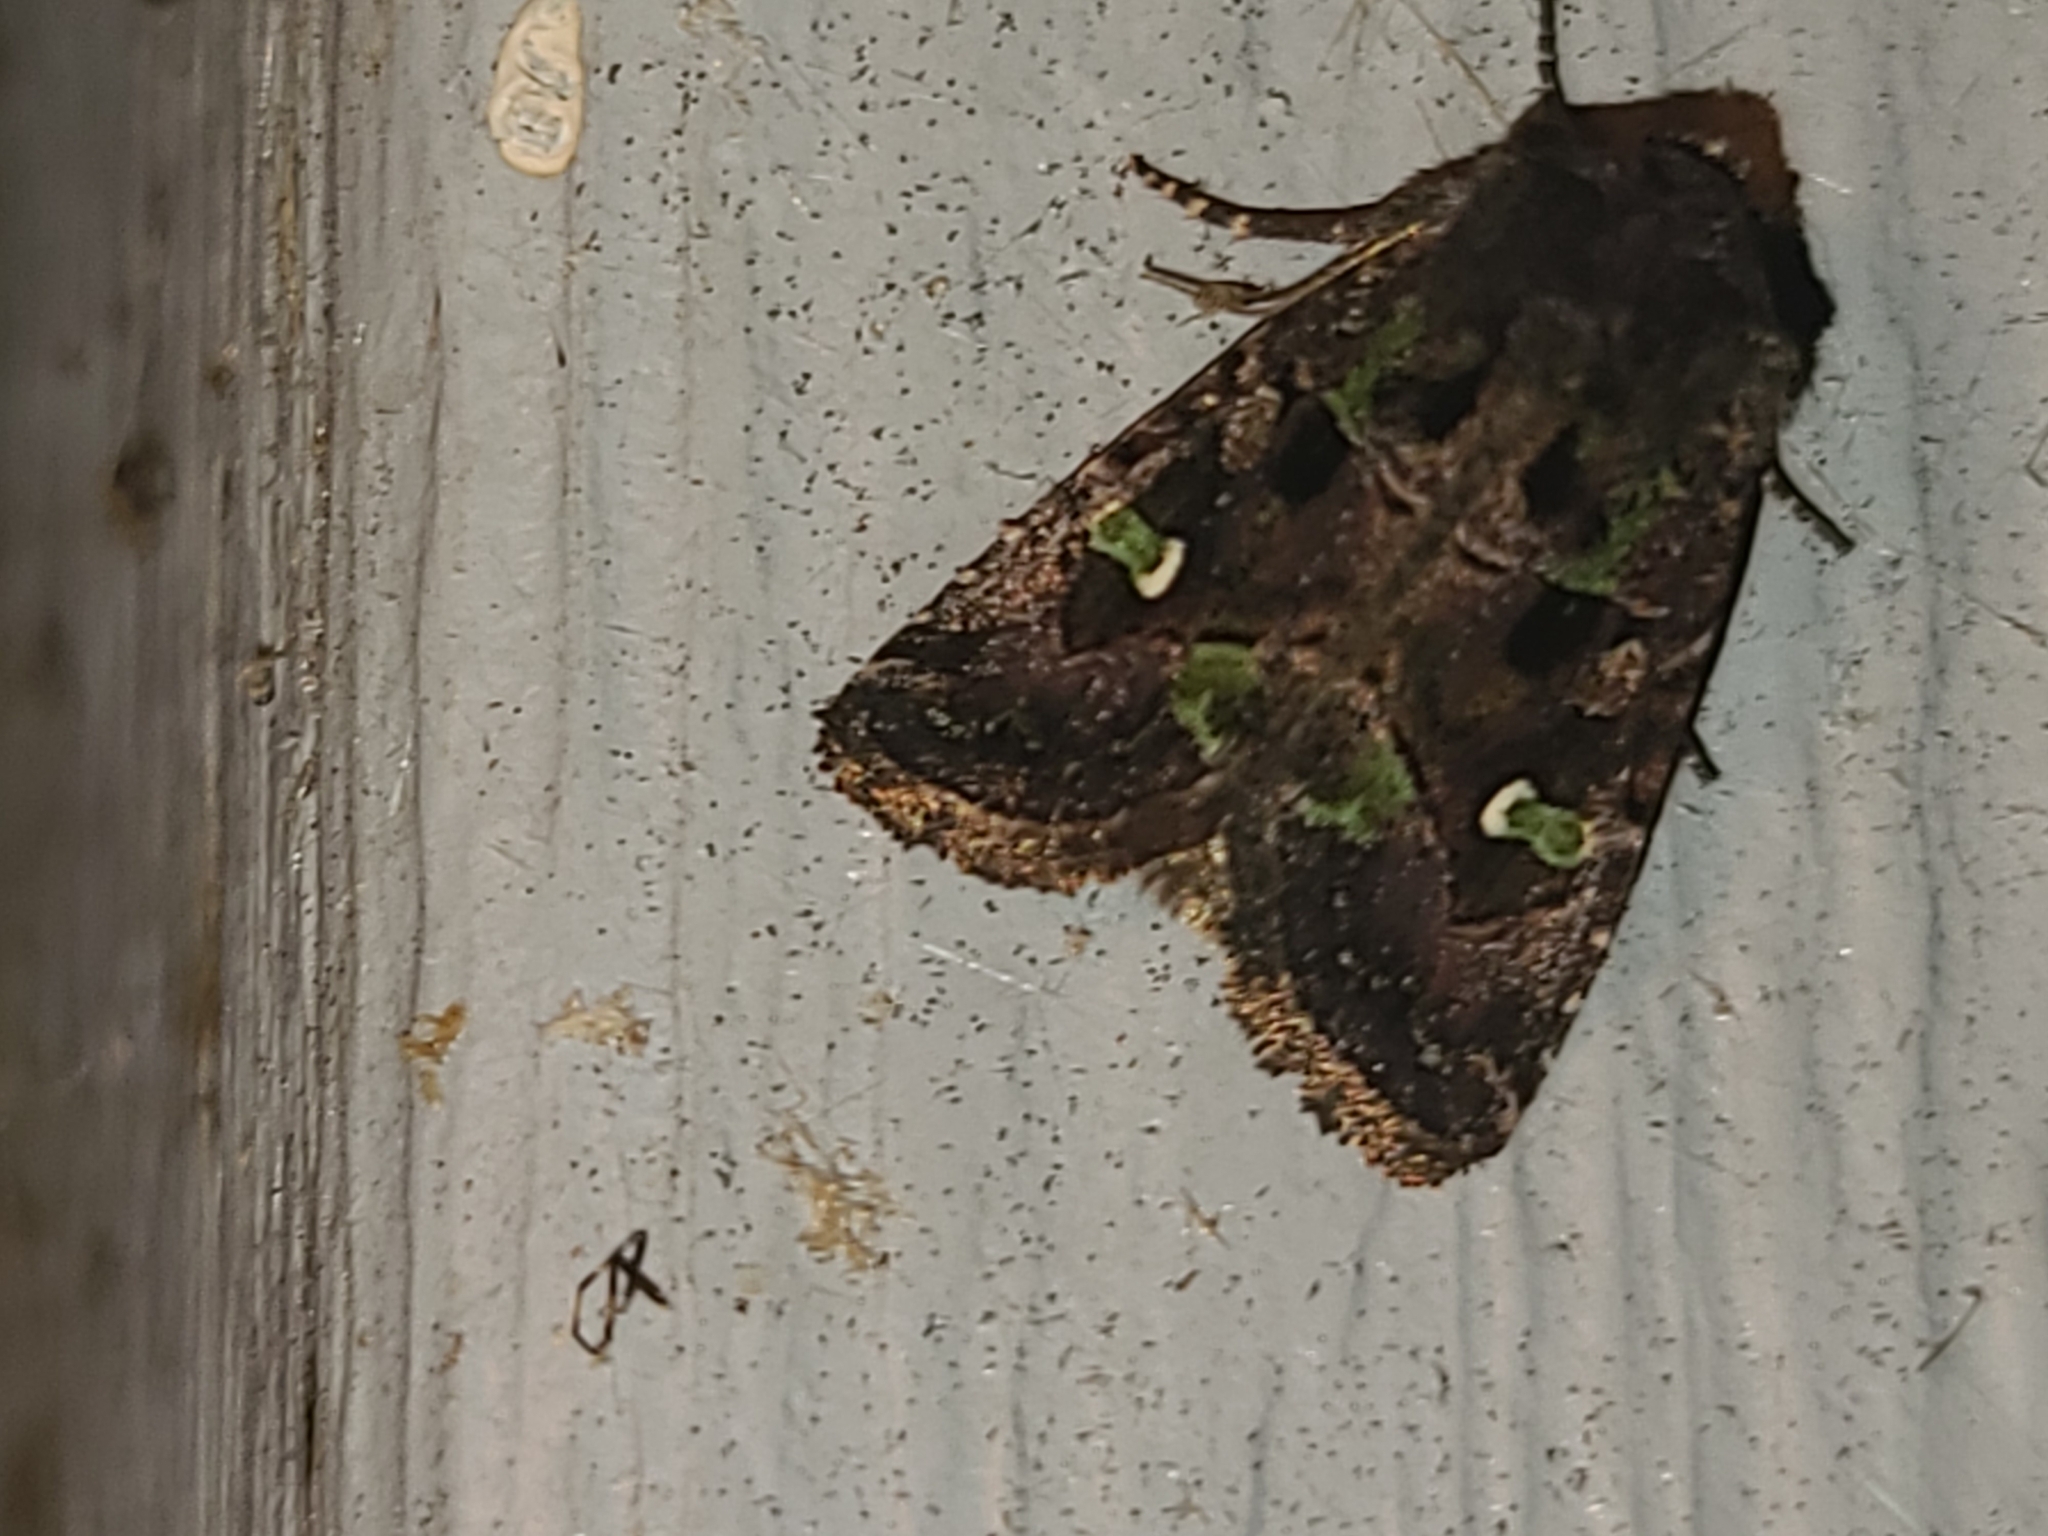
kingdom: Animalia
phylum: Arthropoda
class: Insecta
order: Lepidoptera
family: Noctuidae
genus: Lacinipolia
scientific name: Lacinipolia renigera
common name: Kidney-spotted minor
